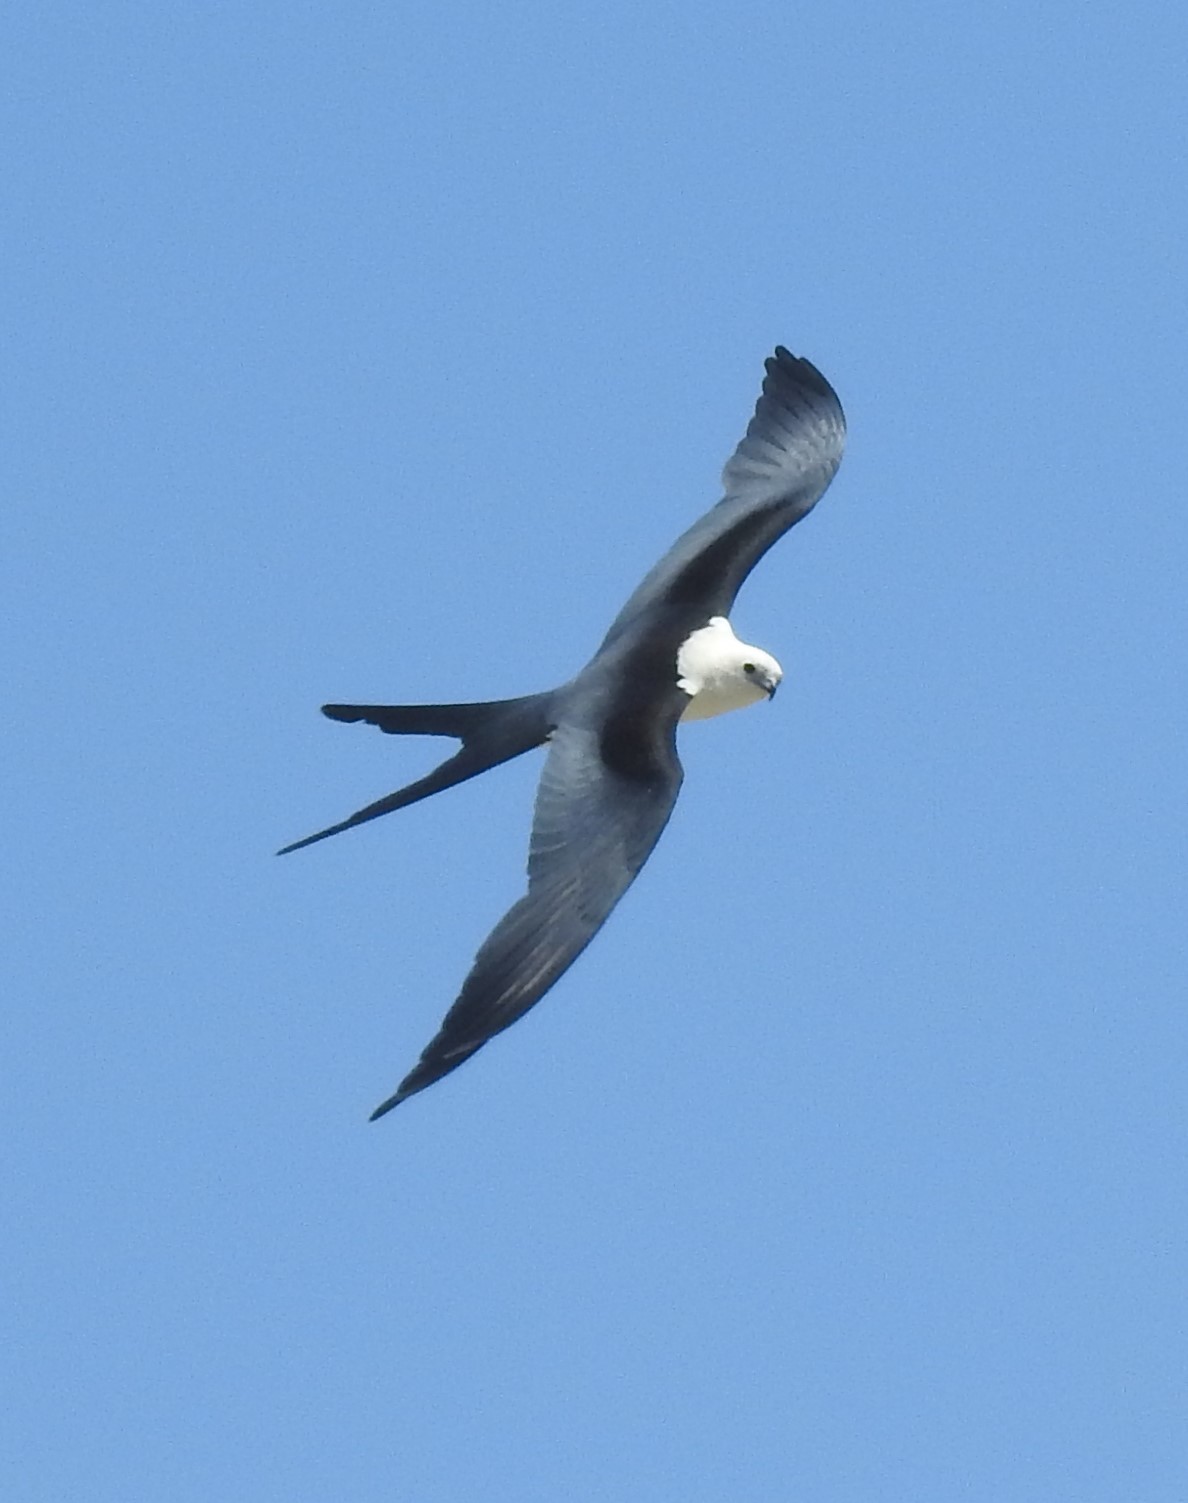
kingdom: Animalia
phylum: Chordata
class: Aves
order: Accipitriformes
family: Accipitridae
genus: Elanoides
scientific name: Elanoides forficatus
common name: Swallow-tailed kite
